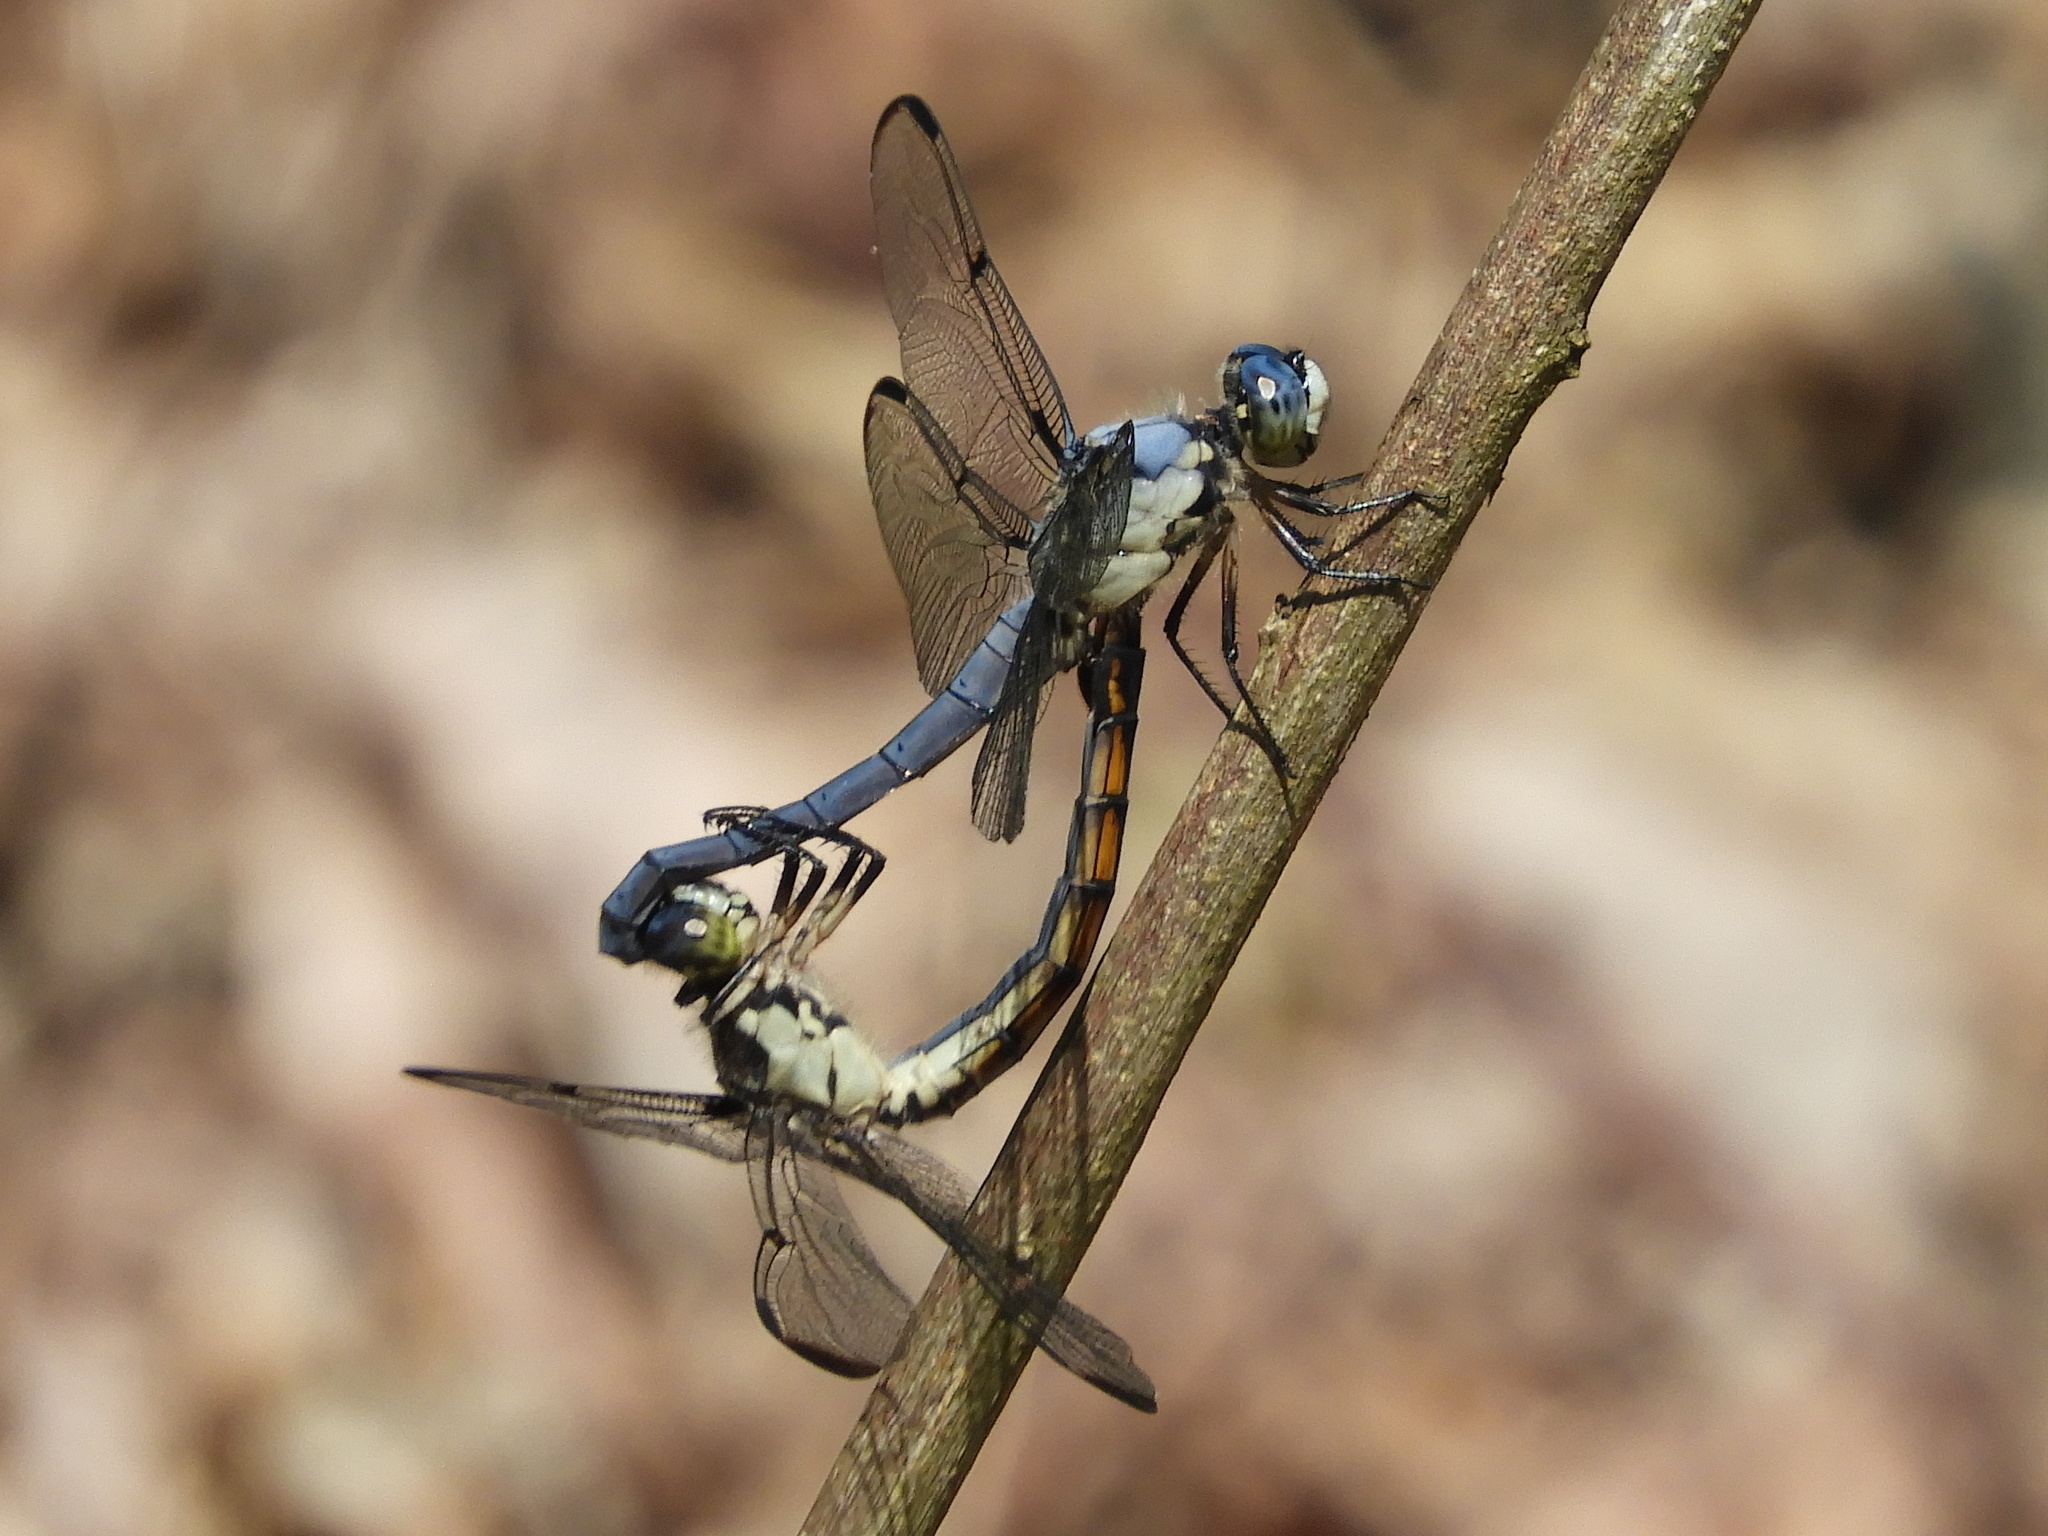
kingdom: Animalia
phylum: Arthropoda
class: Insecta
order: Odonata
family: Libellulidae
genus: Libellula
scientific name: Libellula vibrans
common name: Great blue skimmer
